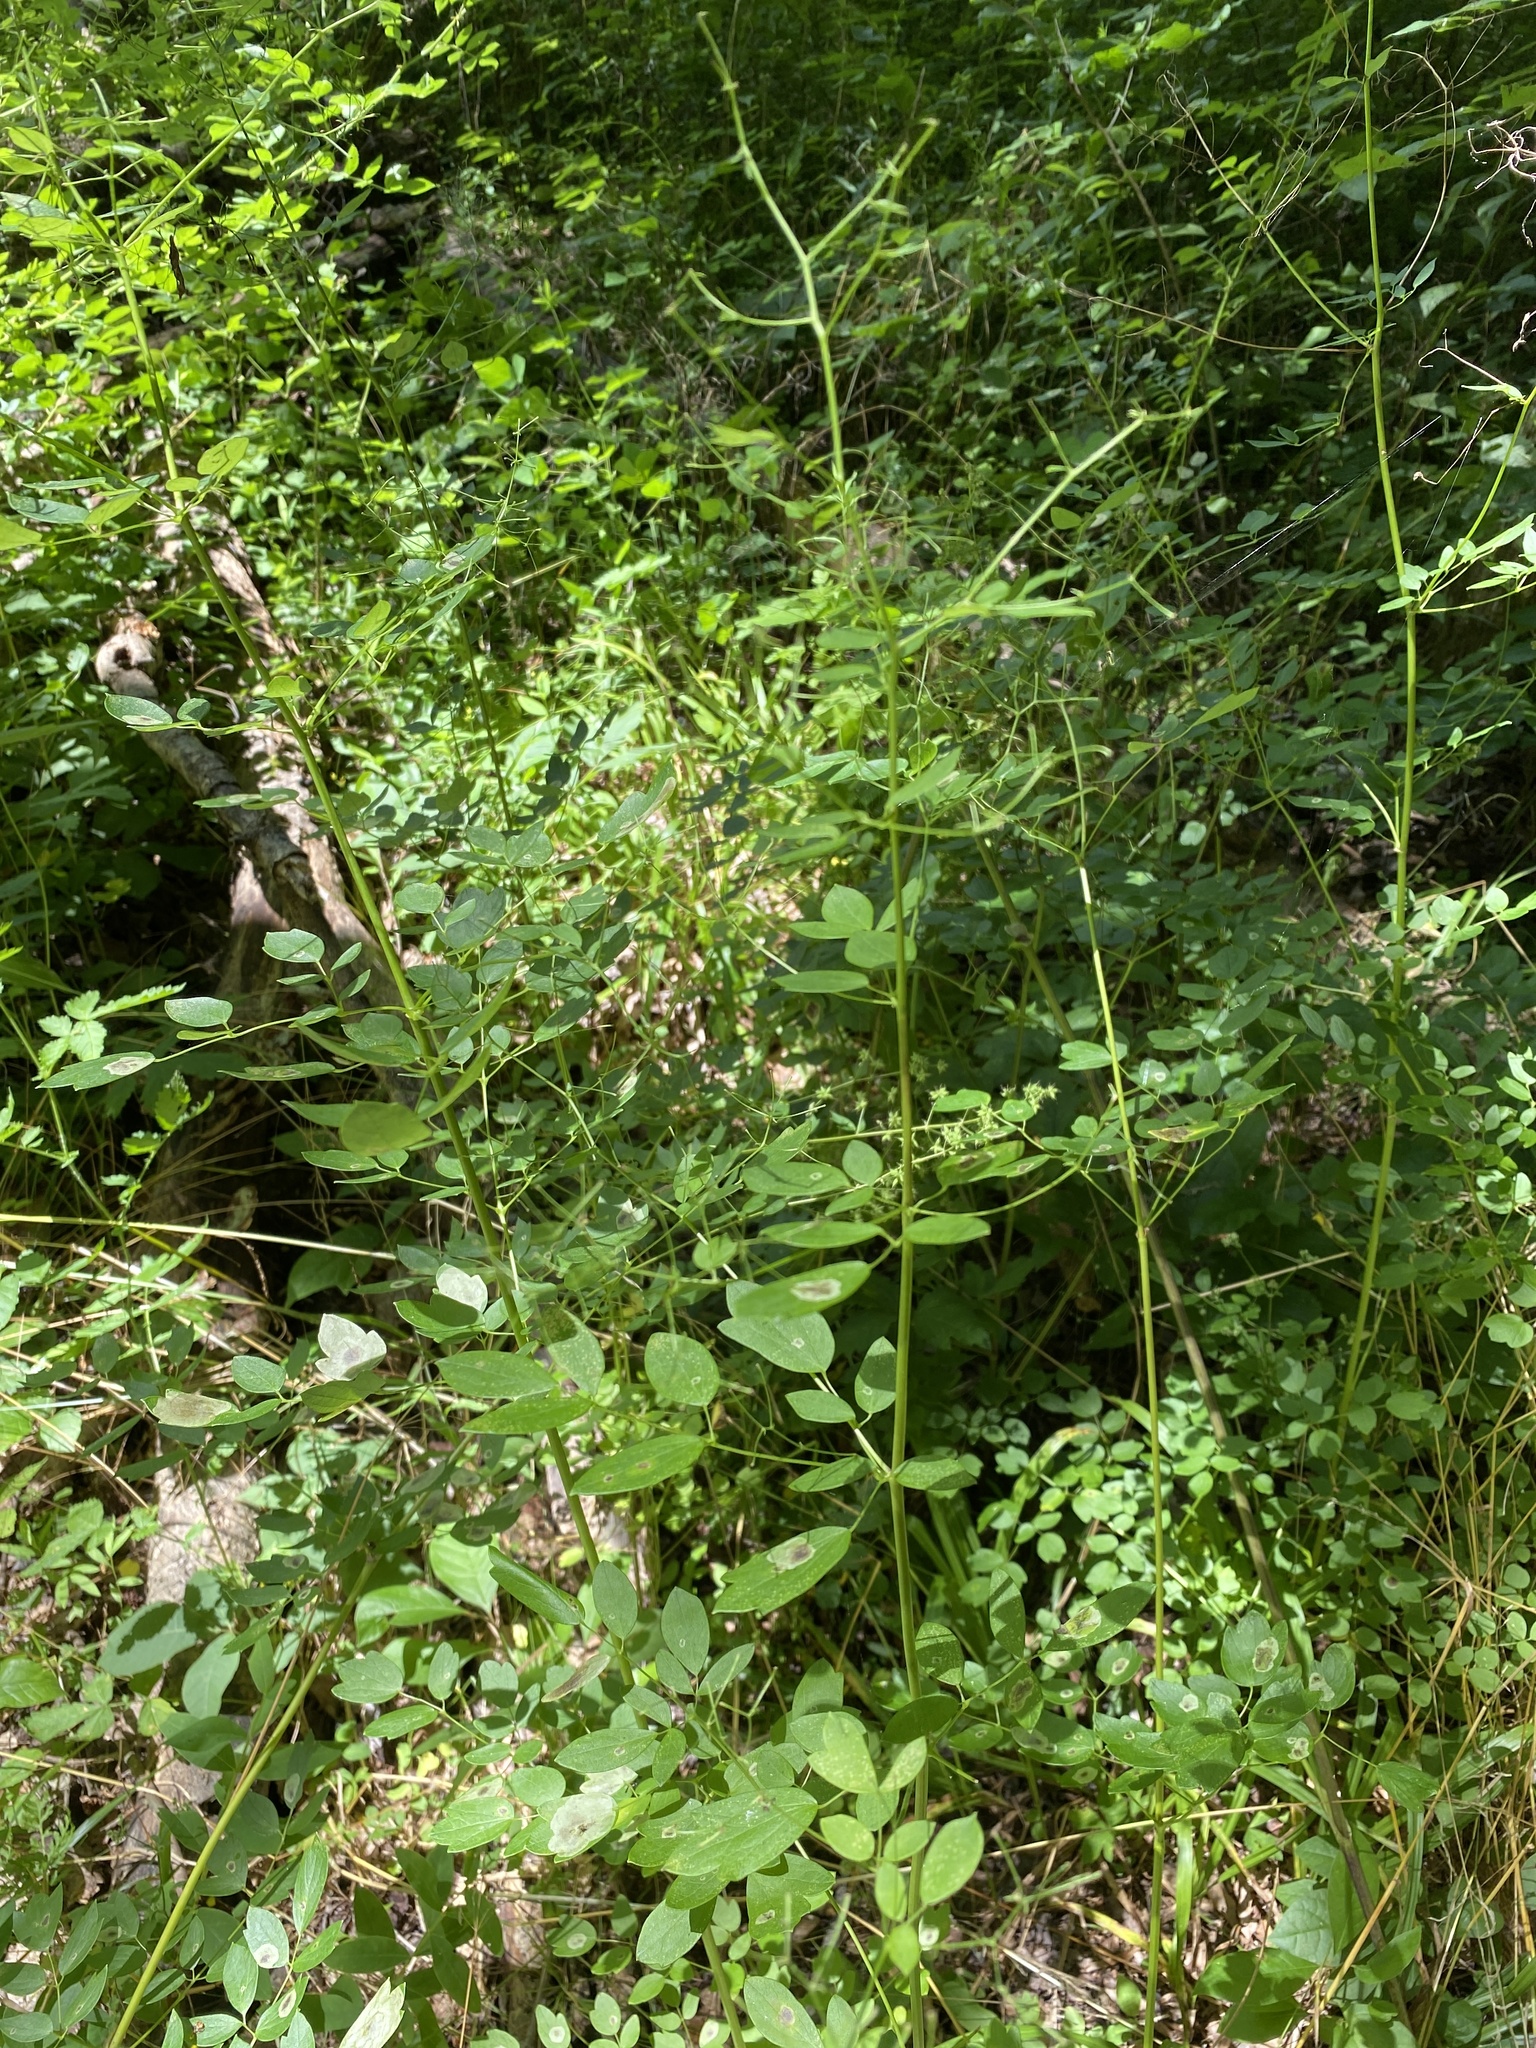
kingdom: Plantae
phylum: Tracheophyta
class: Magnoliopsida
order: Ranunculales
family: Ranunculaceae
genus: Thalictrum
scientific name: Thalictrum pubescens
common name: King-of-the-meadow
